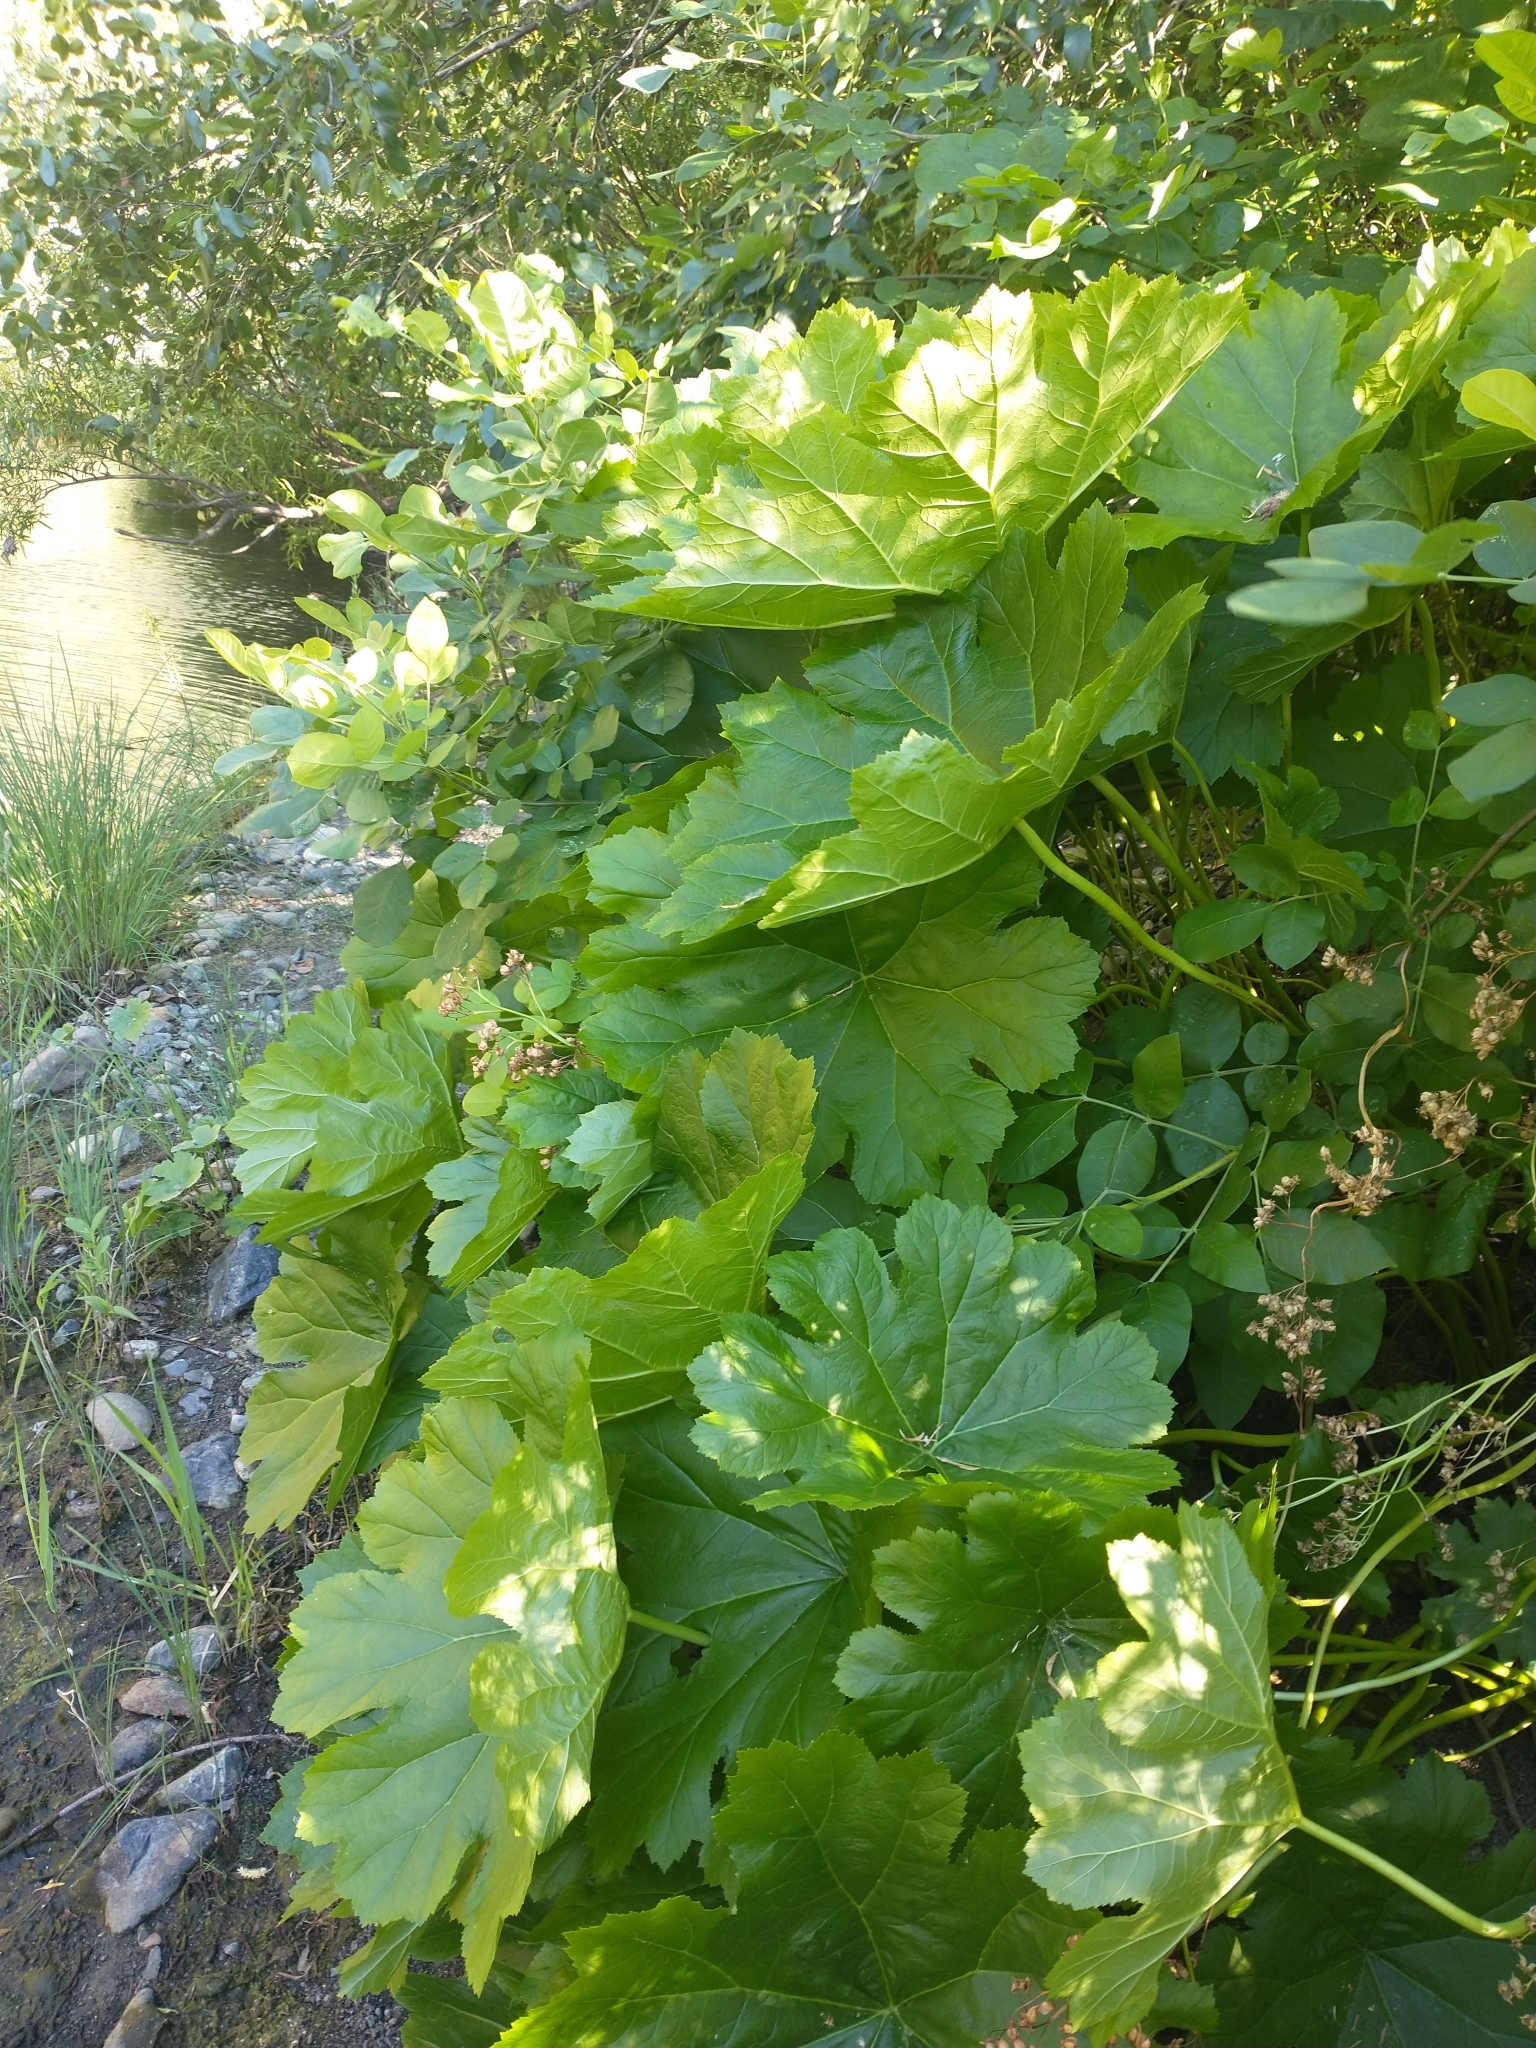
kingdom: Plantae
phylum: Tracheophyta
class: Magnoliopsida
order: Saxifragales
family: Saxifragaceae
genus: Darmera
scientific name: Darmera peltata
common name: Indian-rhubarb
